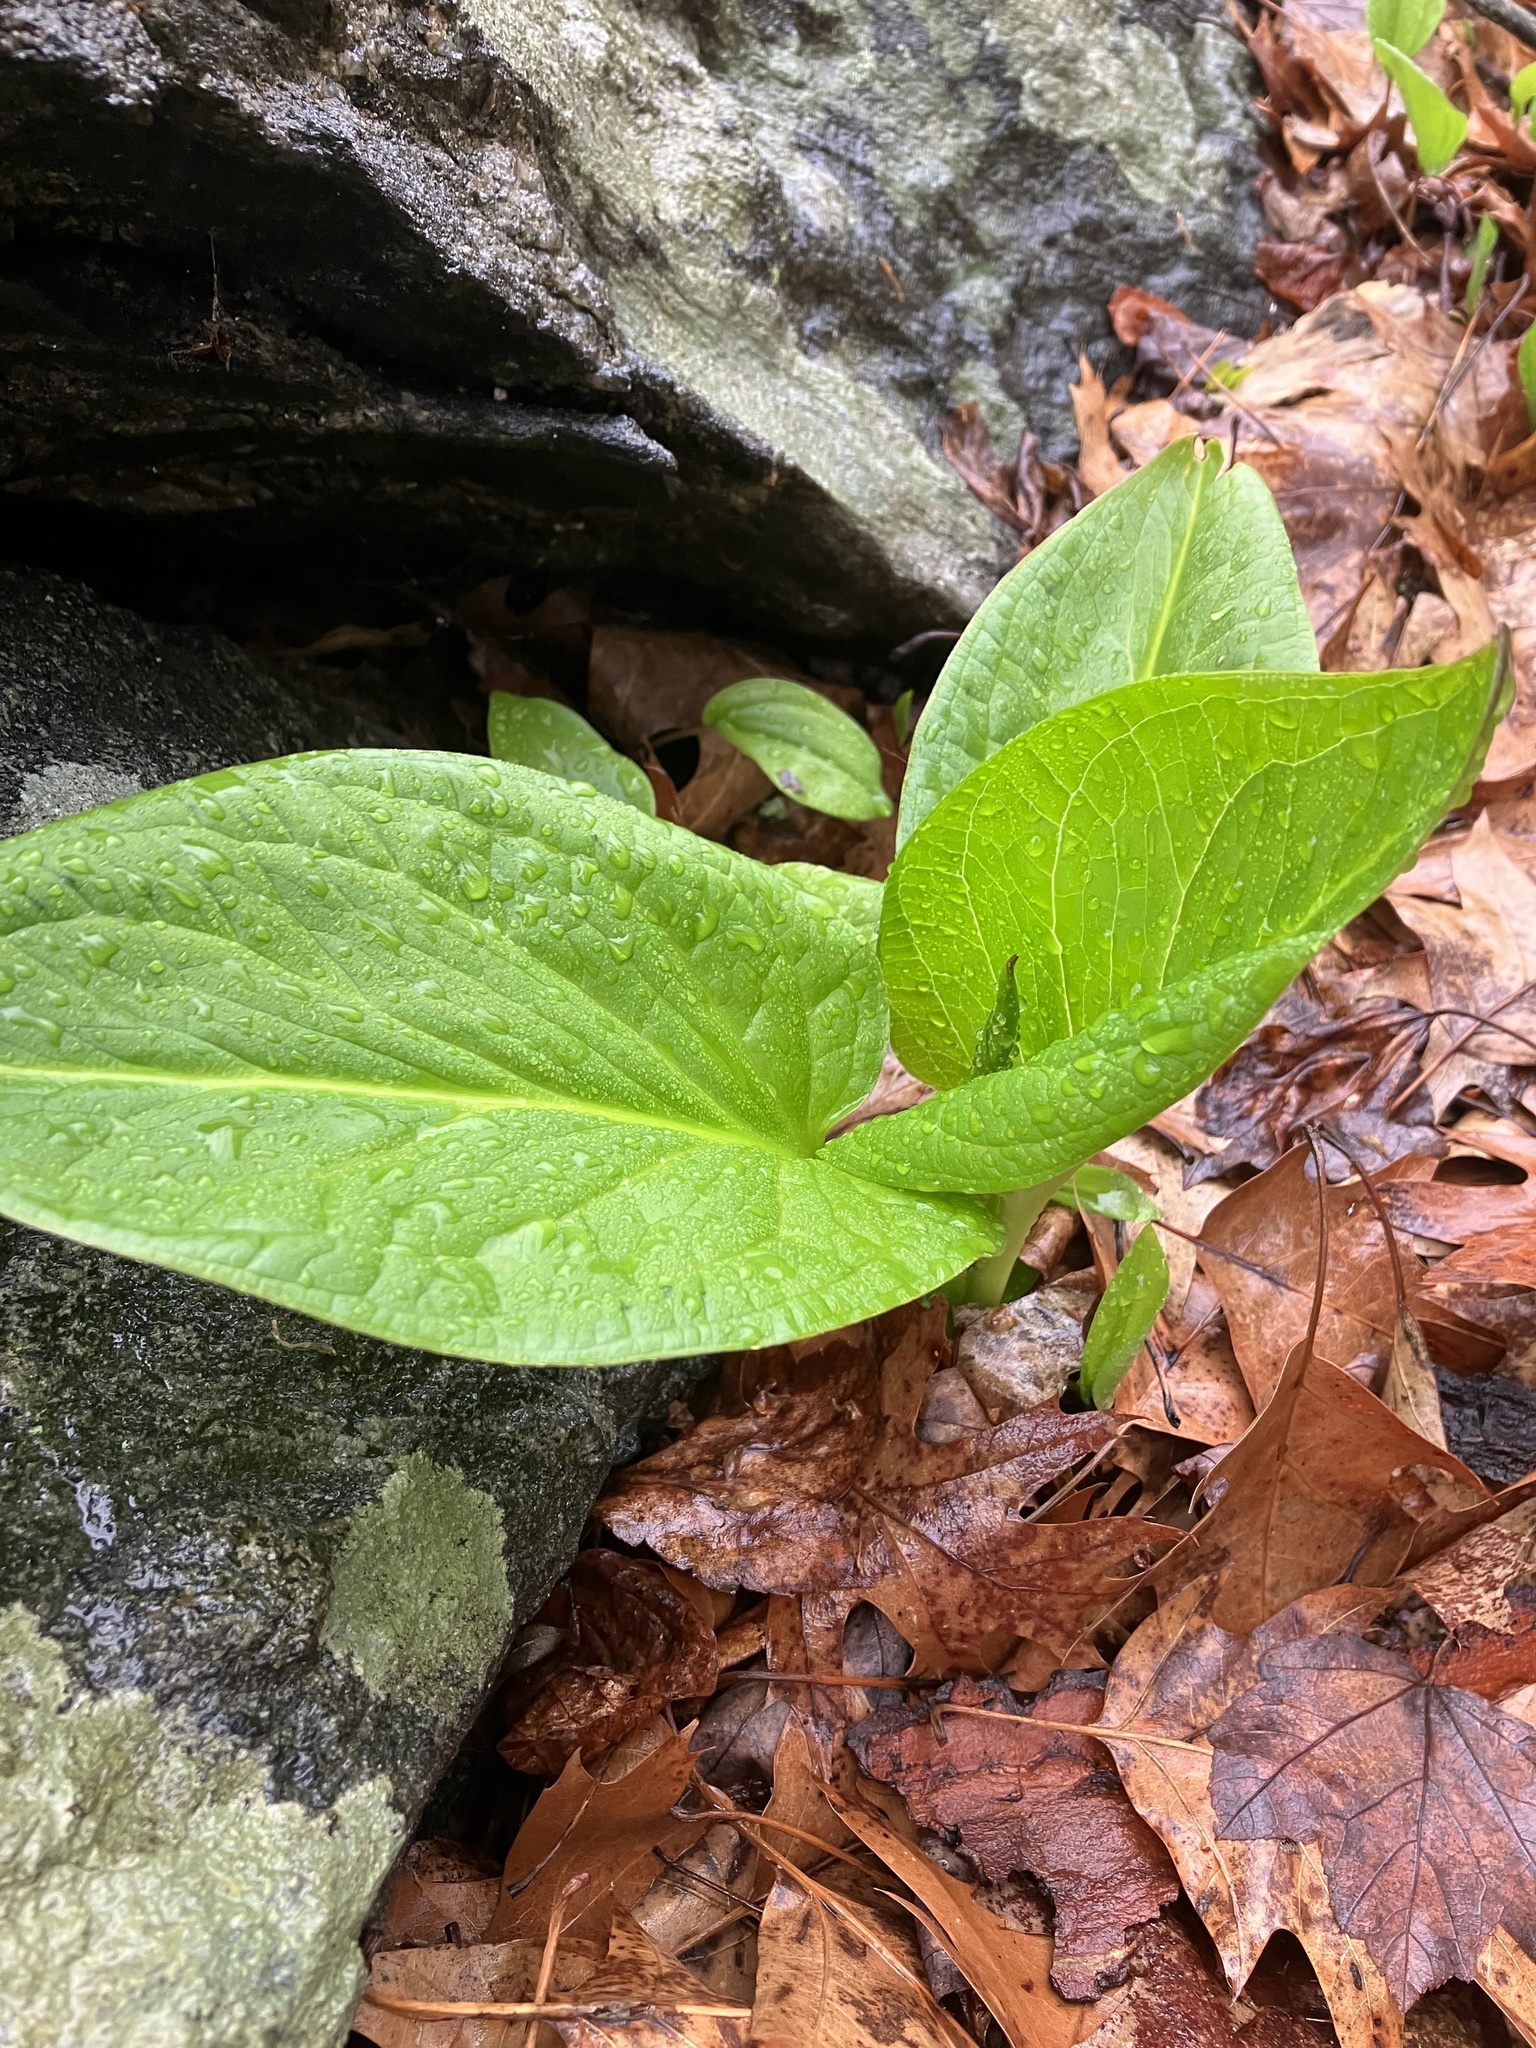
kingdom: Plantae
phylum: Tracheophyta
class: Liliopsida
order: Alismatales
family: Araceae
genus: Symplocarpus
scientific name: Symplocarpus foetidus
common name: Eastern skunk cabbage
